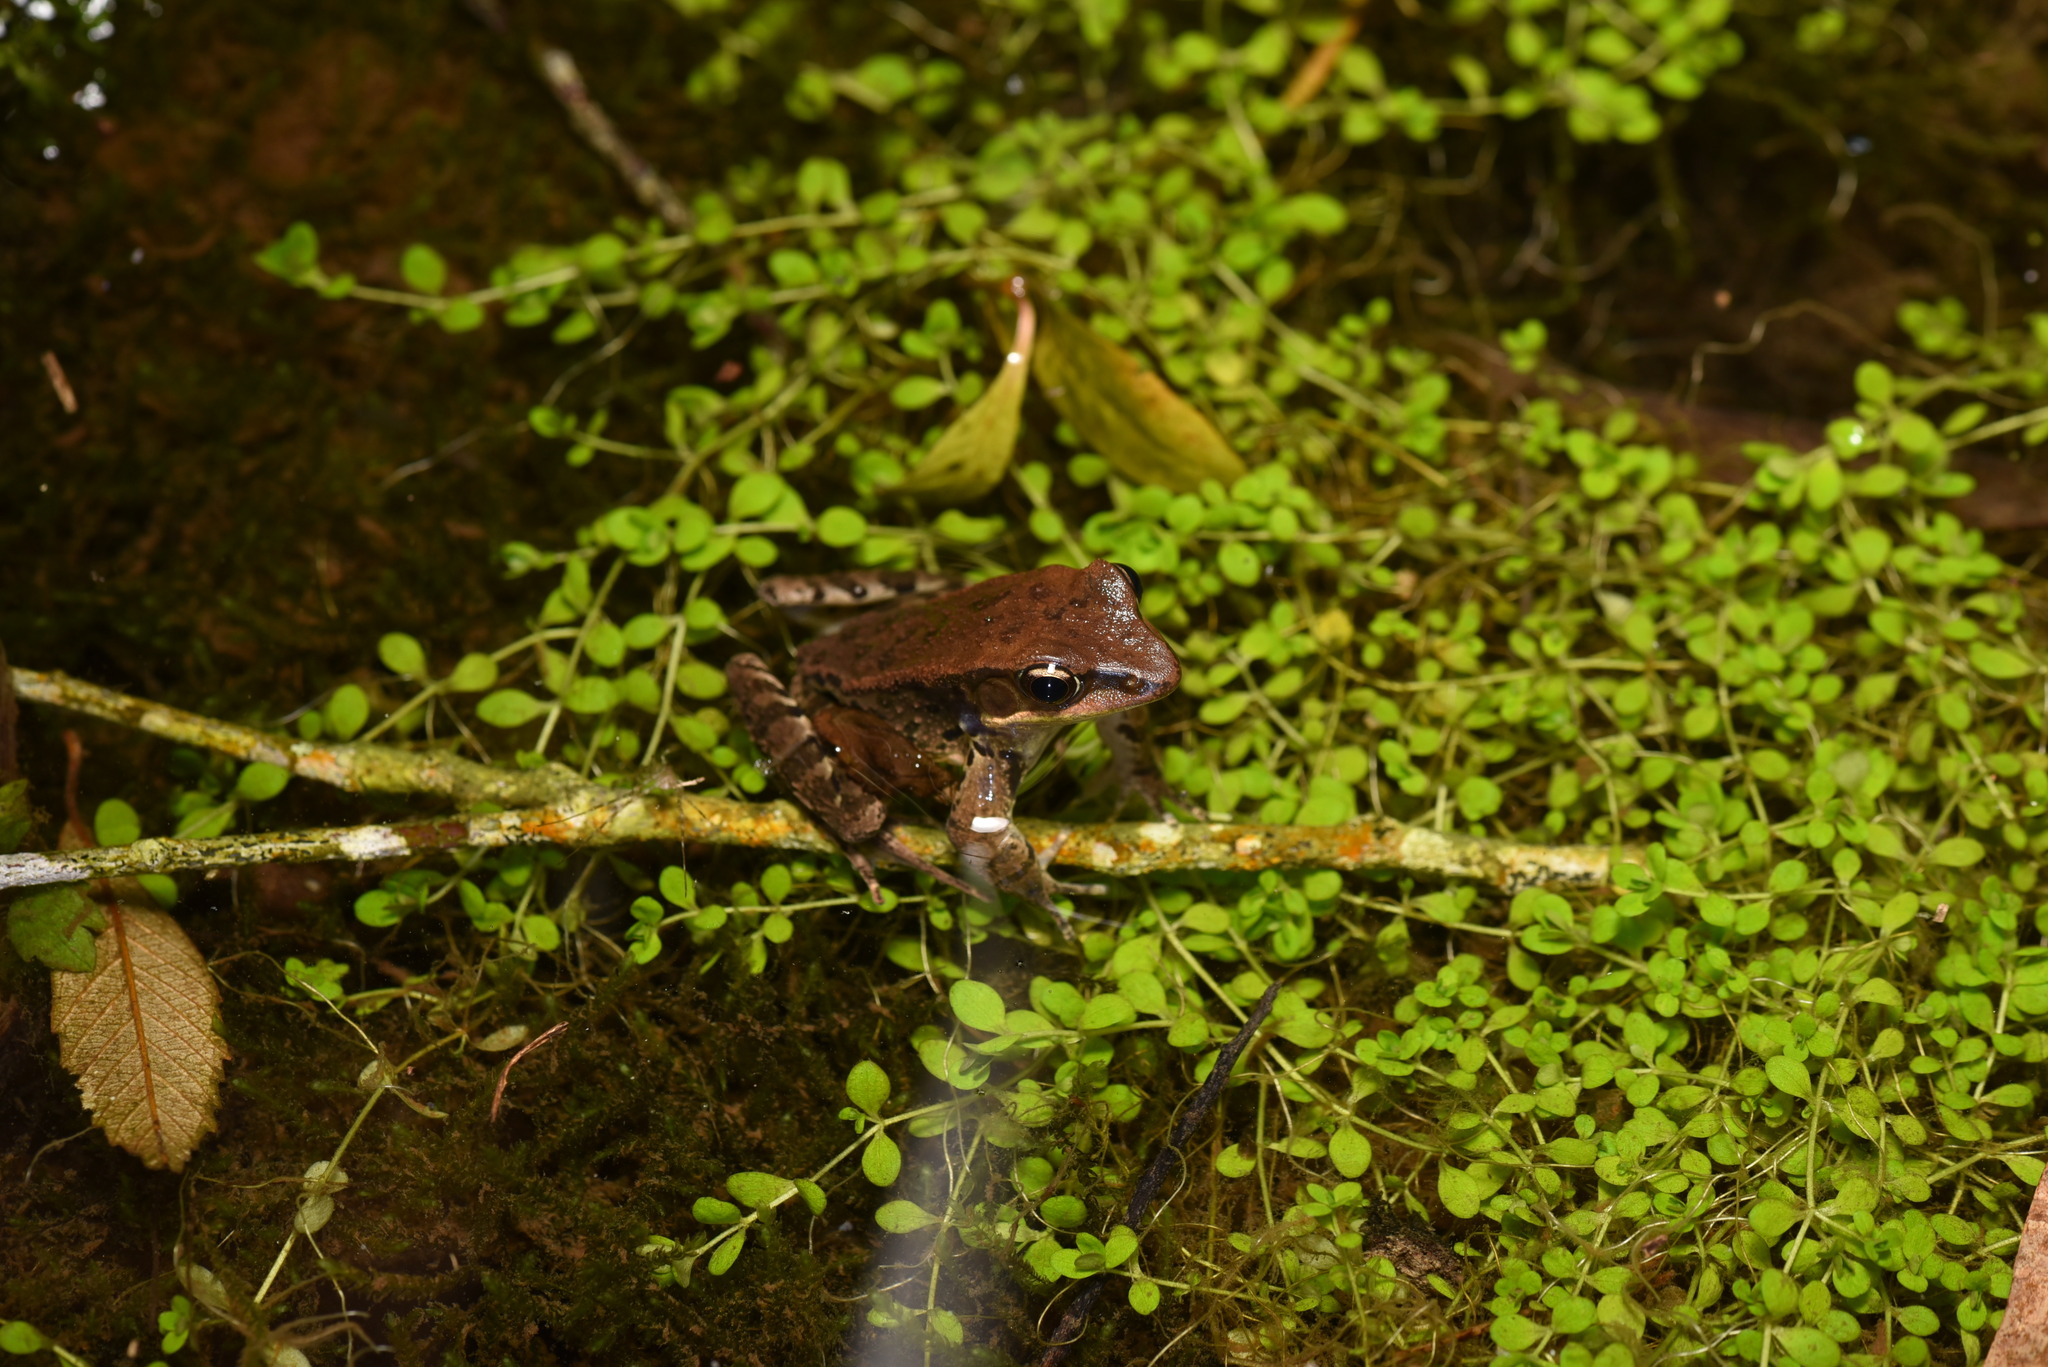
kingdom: Animalia
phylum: Chordata
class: Amphibia
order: Anura
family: Ranidae
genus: Hylarana
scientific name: Hylarana latouchii
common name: Broad-folded frog
